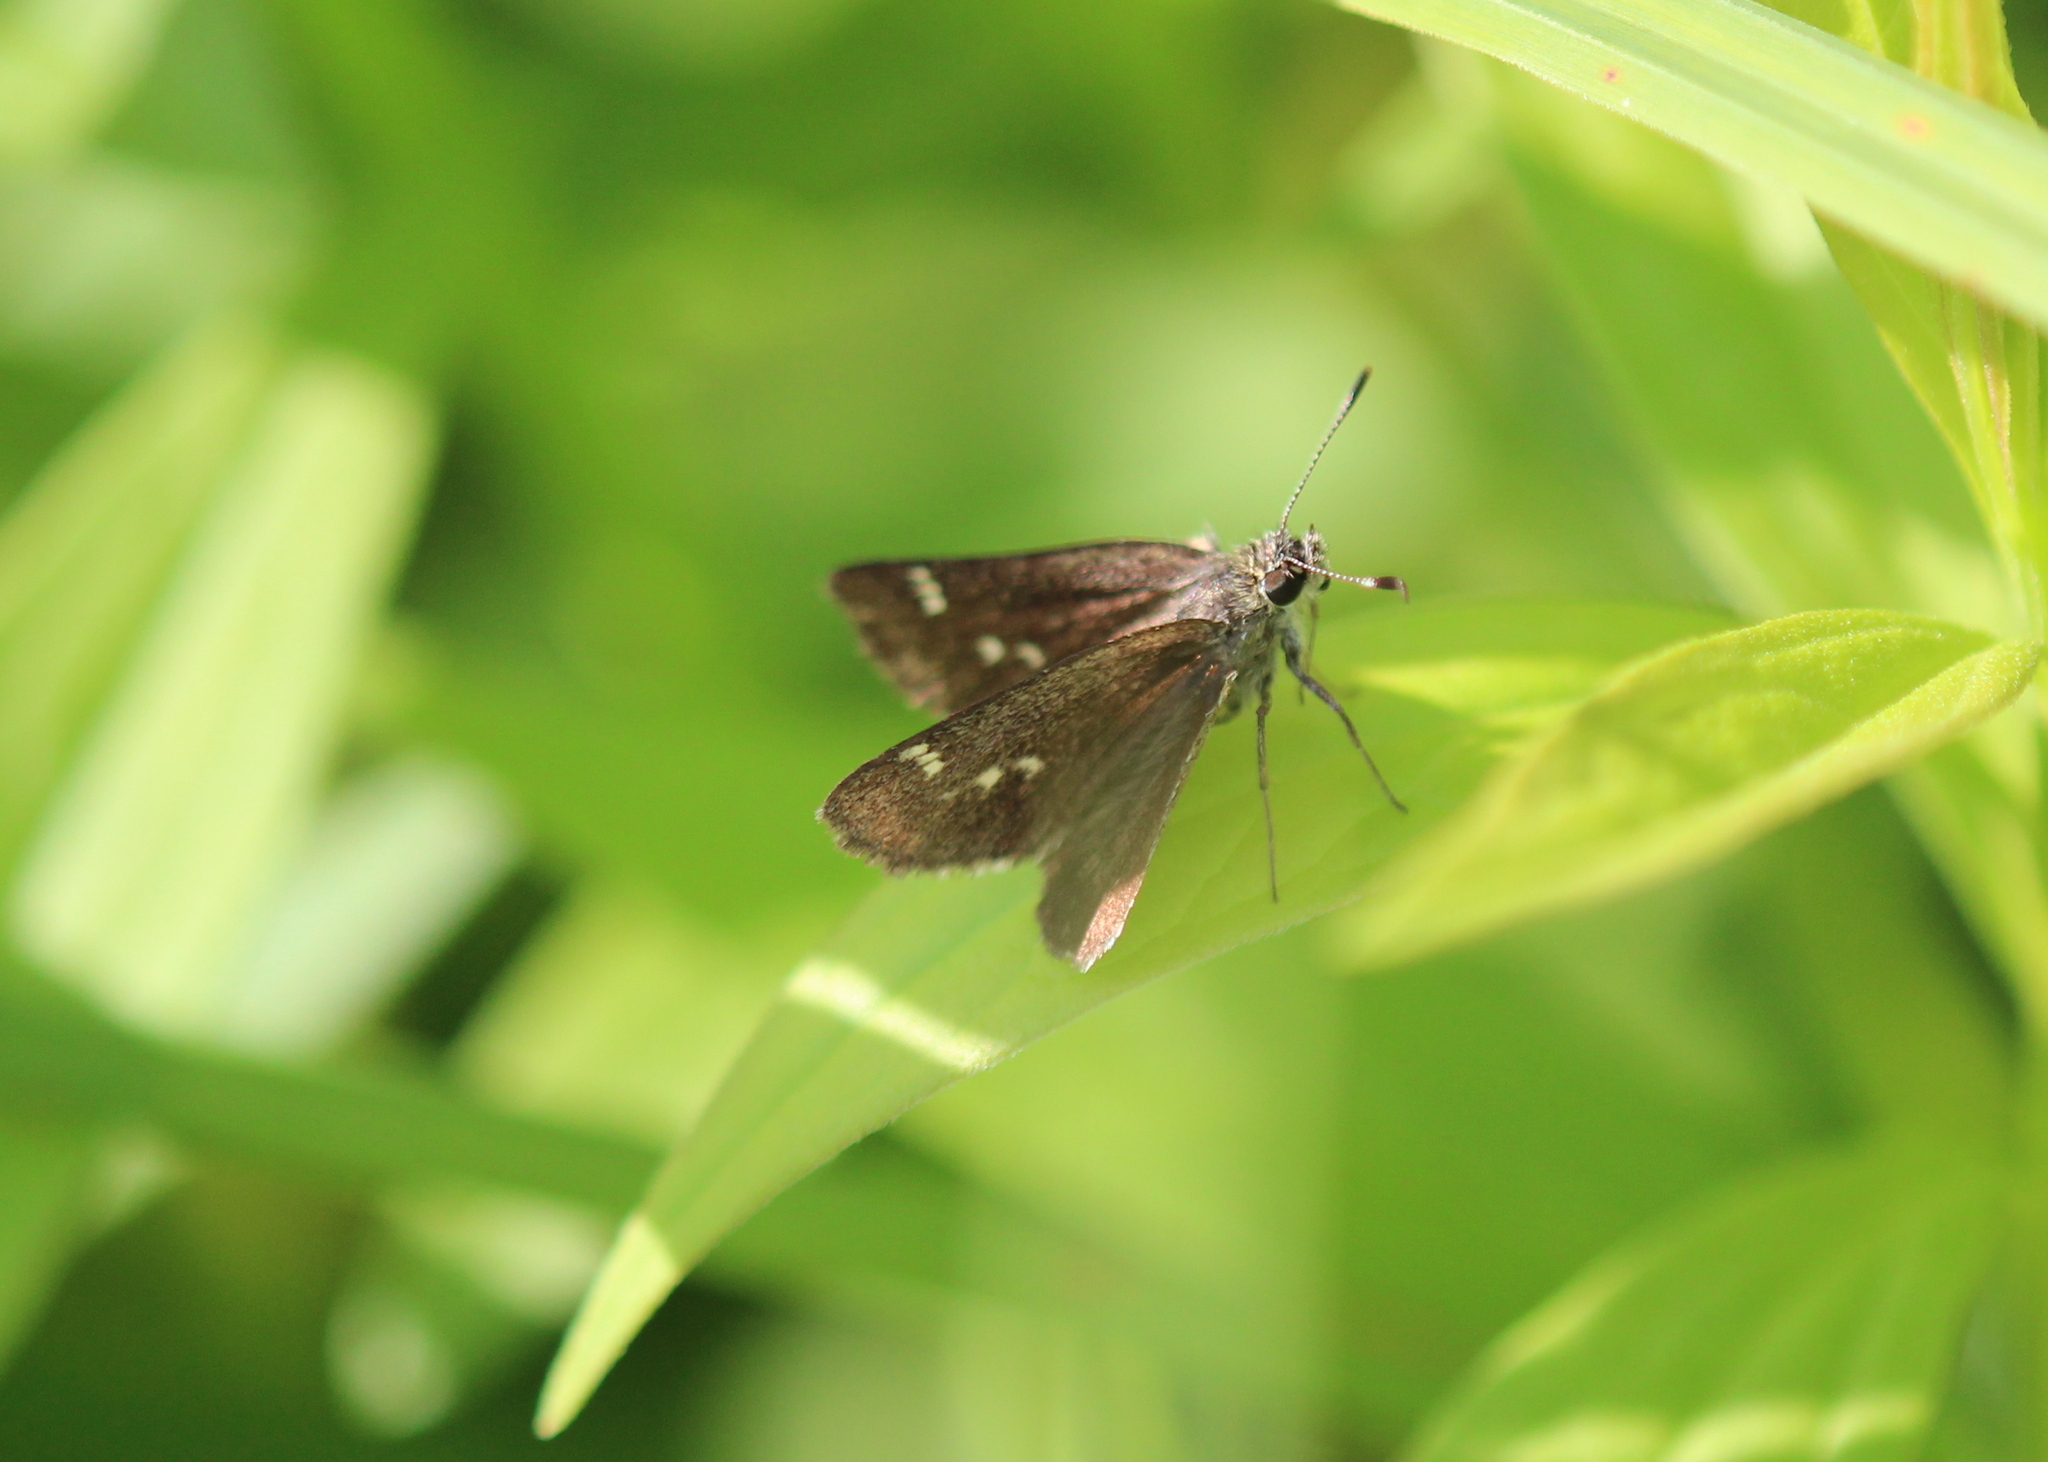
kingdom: Animalia
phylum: Arthropoda
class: Insecta
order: Lepidoptera
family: Hesperiidae
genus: Mastor
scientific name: Mastor hegon
